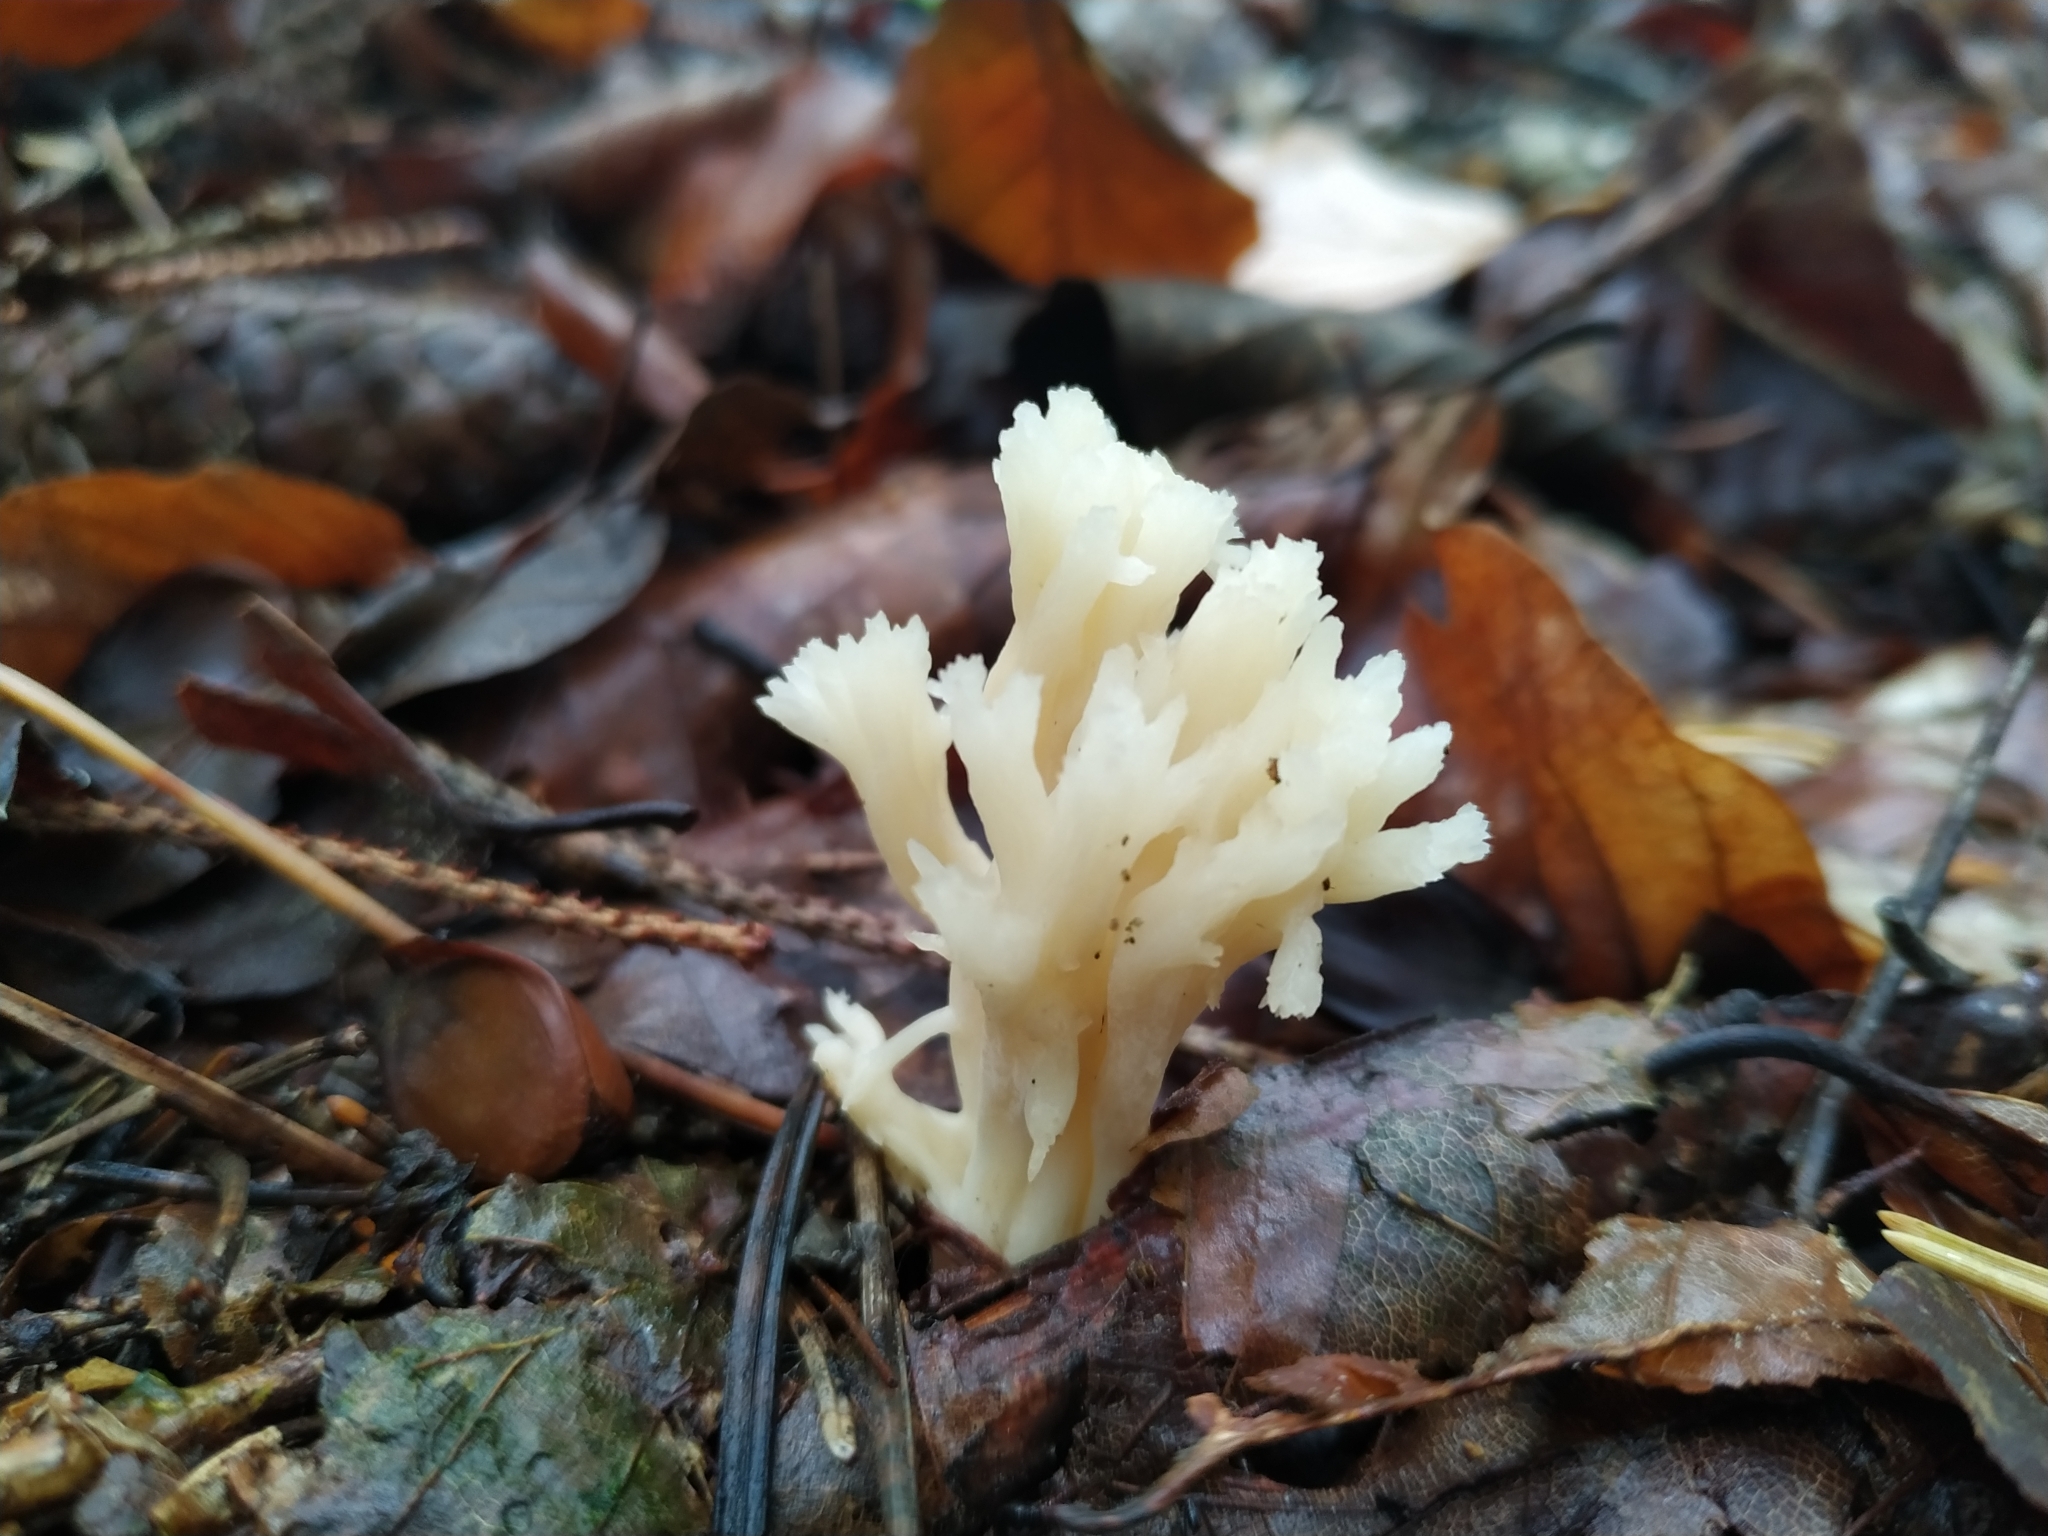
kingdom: Fungi
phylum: Basidiomycota
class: Agaricomycetes
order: Cantharellales
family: Hydnaceae
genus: Clavulina
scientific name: Clavulina coralloides
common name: Crested coral
